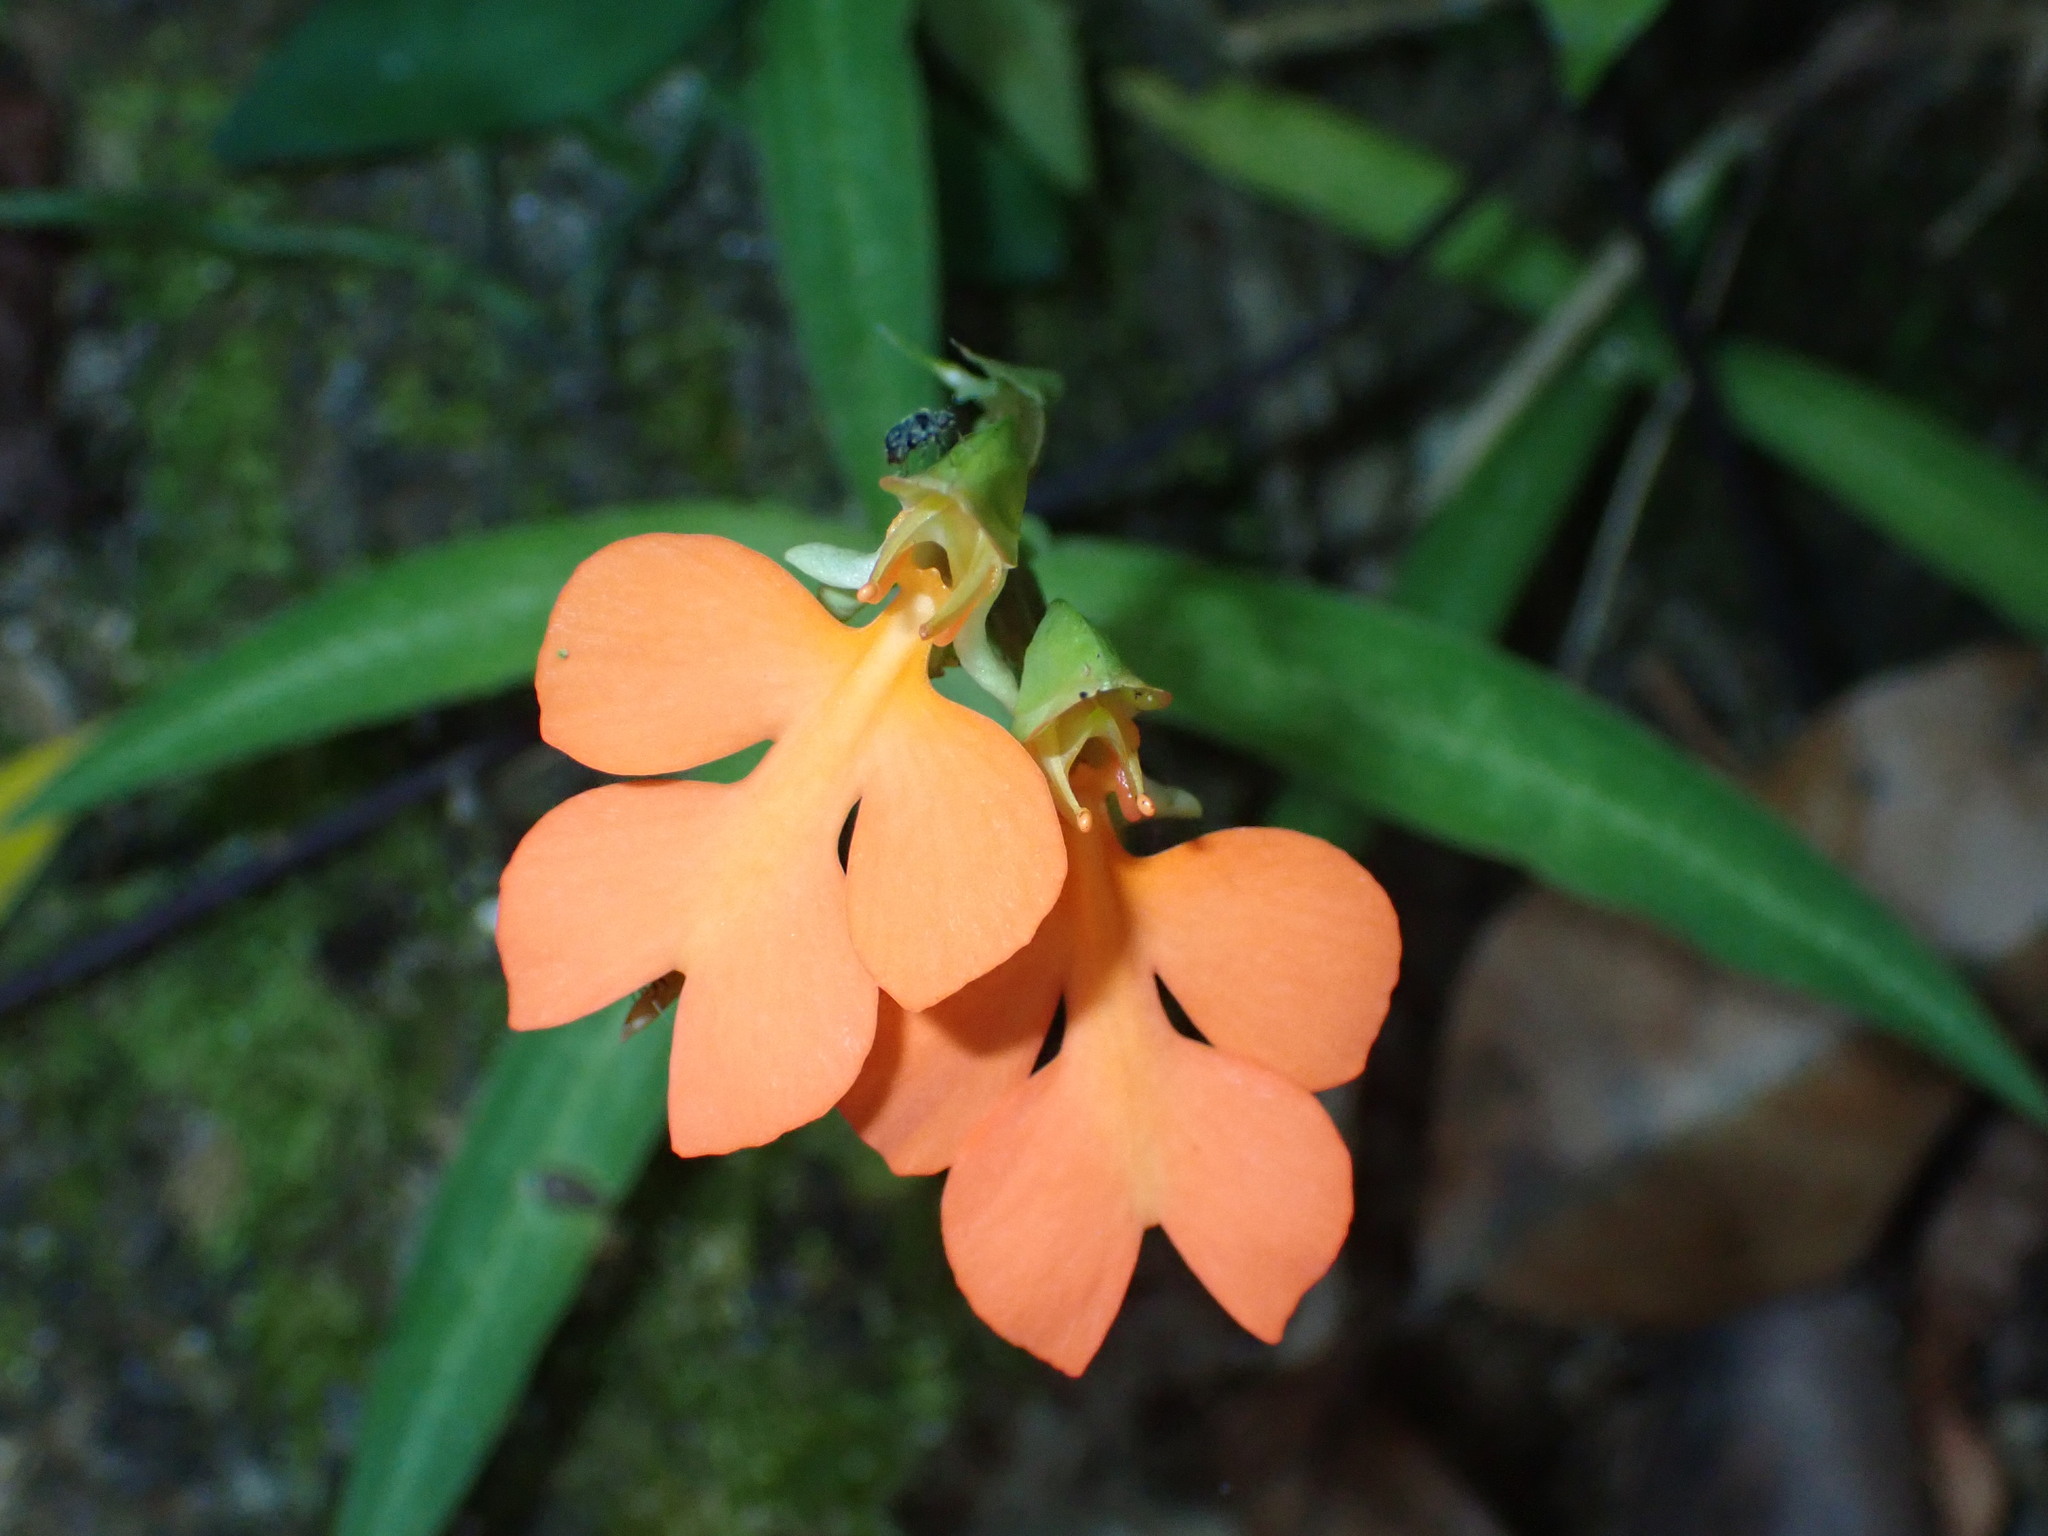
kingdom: Plantae
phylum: Tracheophyta
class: Liliopsida
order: Asparagales
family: Orchidaceae
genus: Habenaria
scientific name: Habenaria rhodocheila
